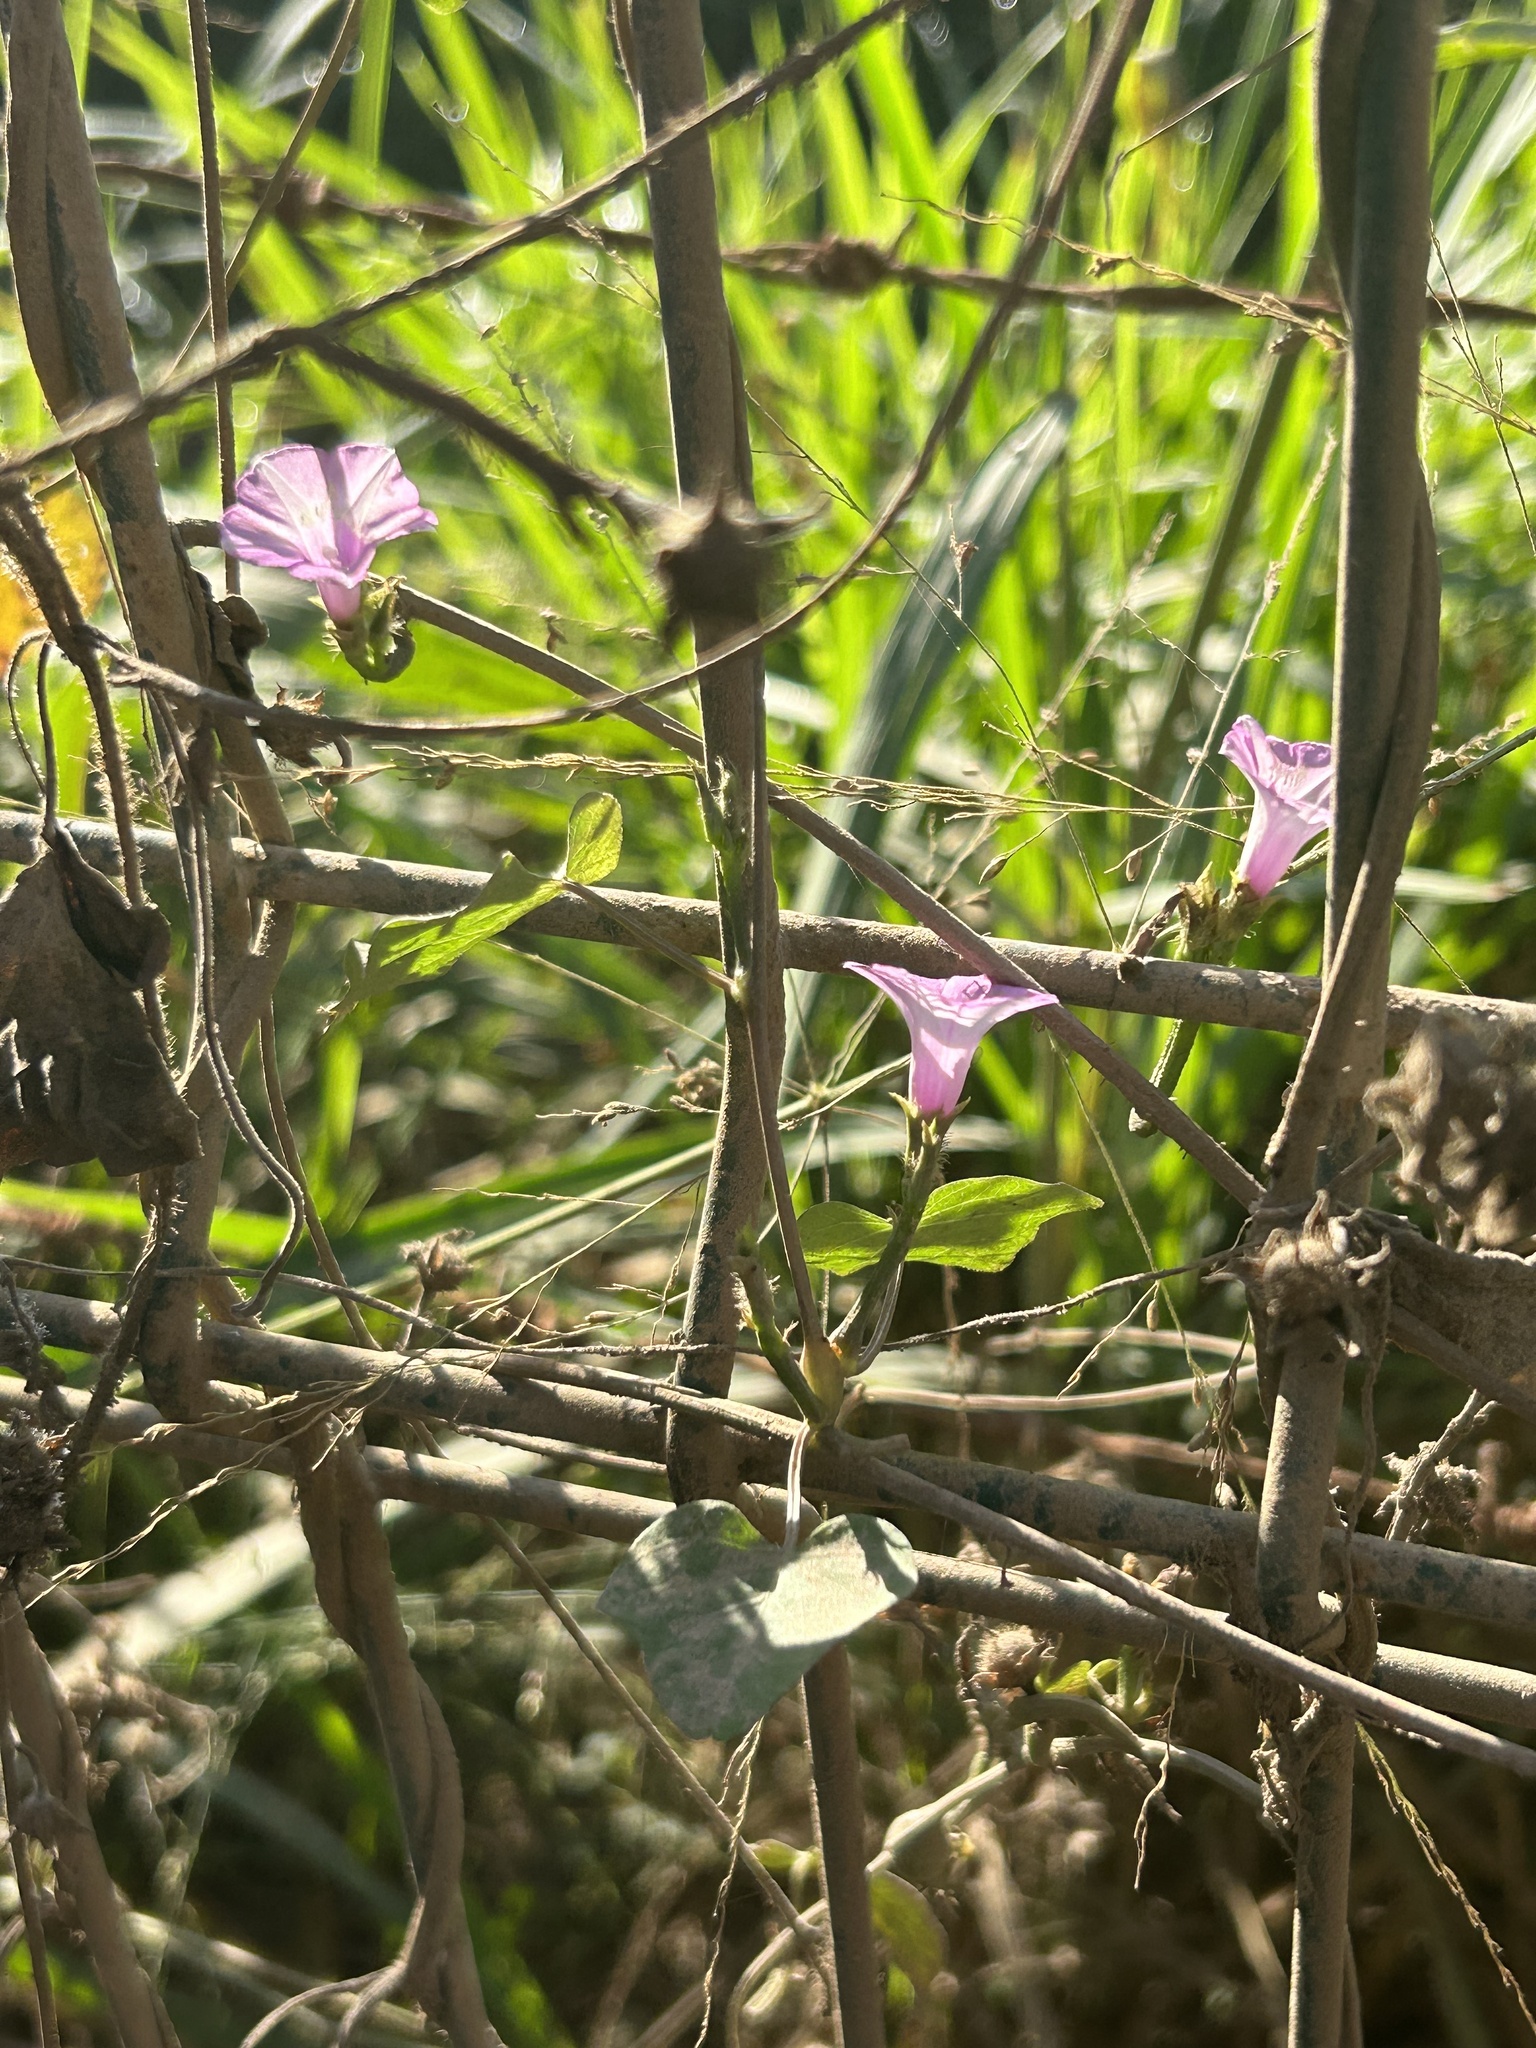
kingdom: Plantae
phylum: Tracheophyta
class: Magnoliopsida
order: Solanales
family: Convolvulaceae
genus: Ipomoea
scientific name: Ipomoea triloba
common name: Little-bell
